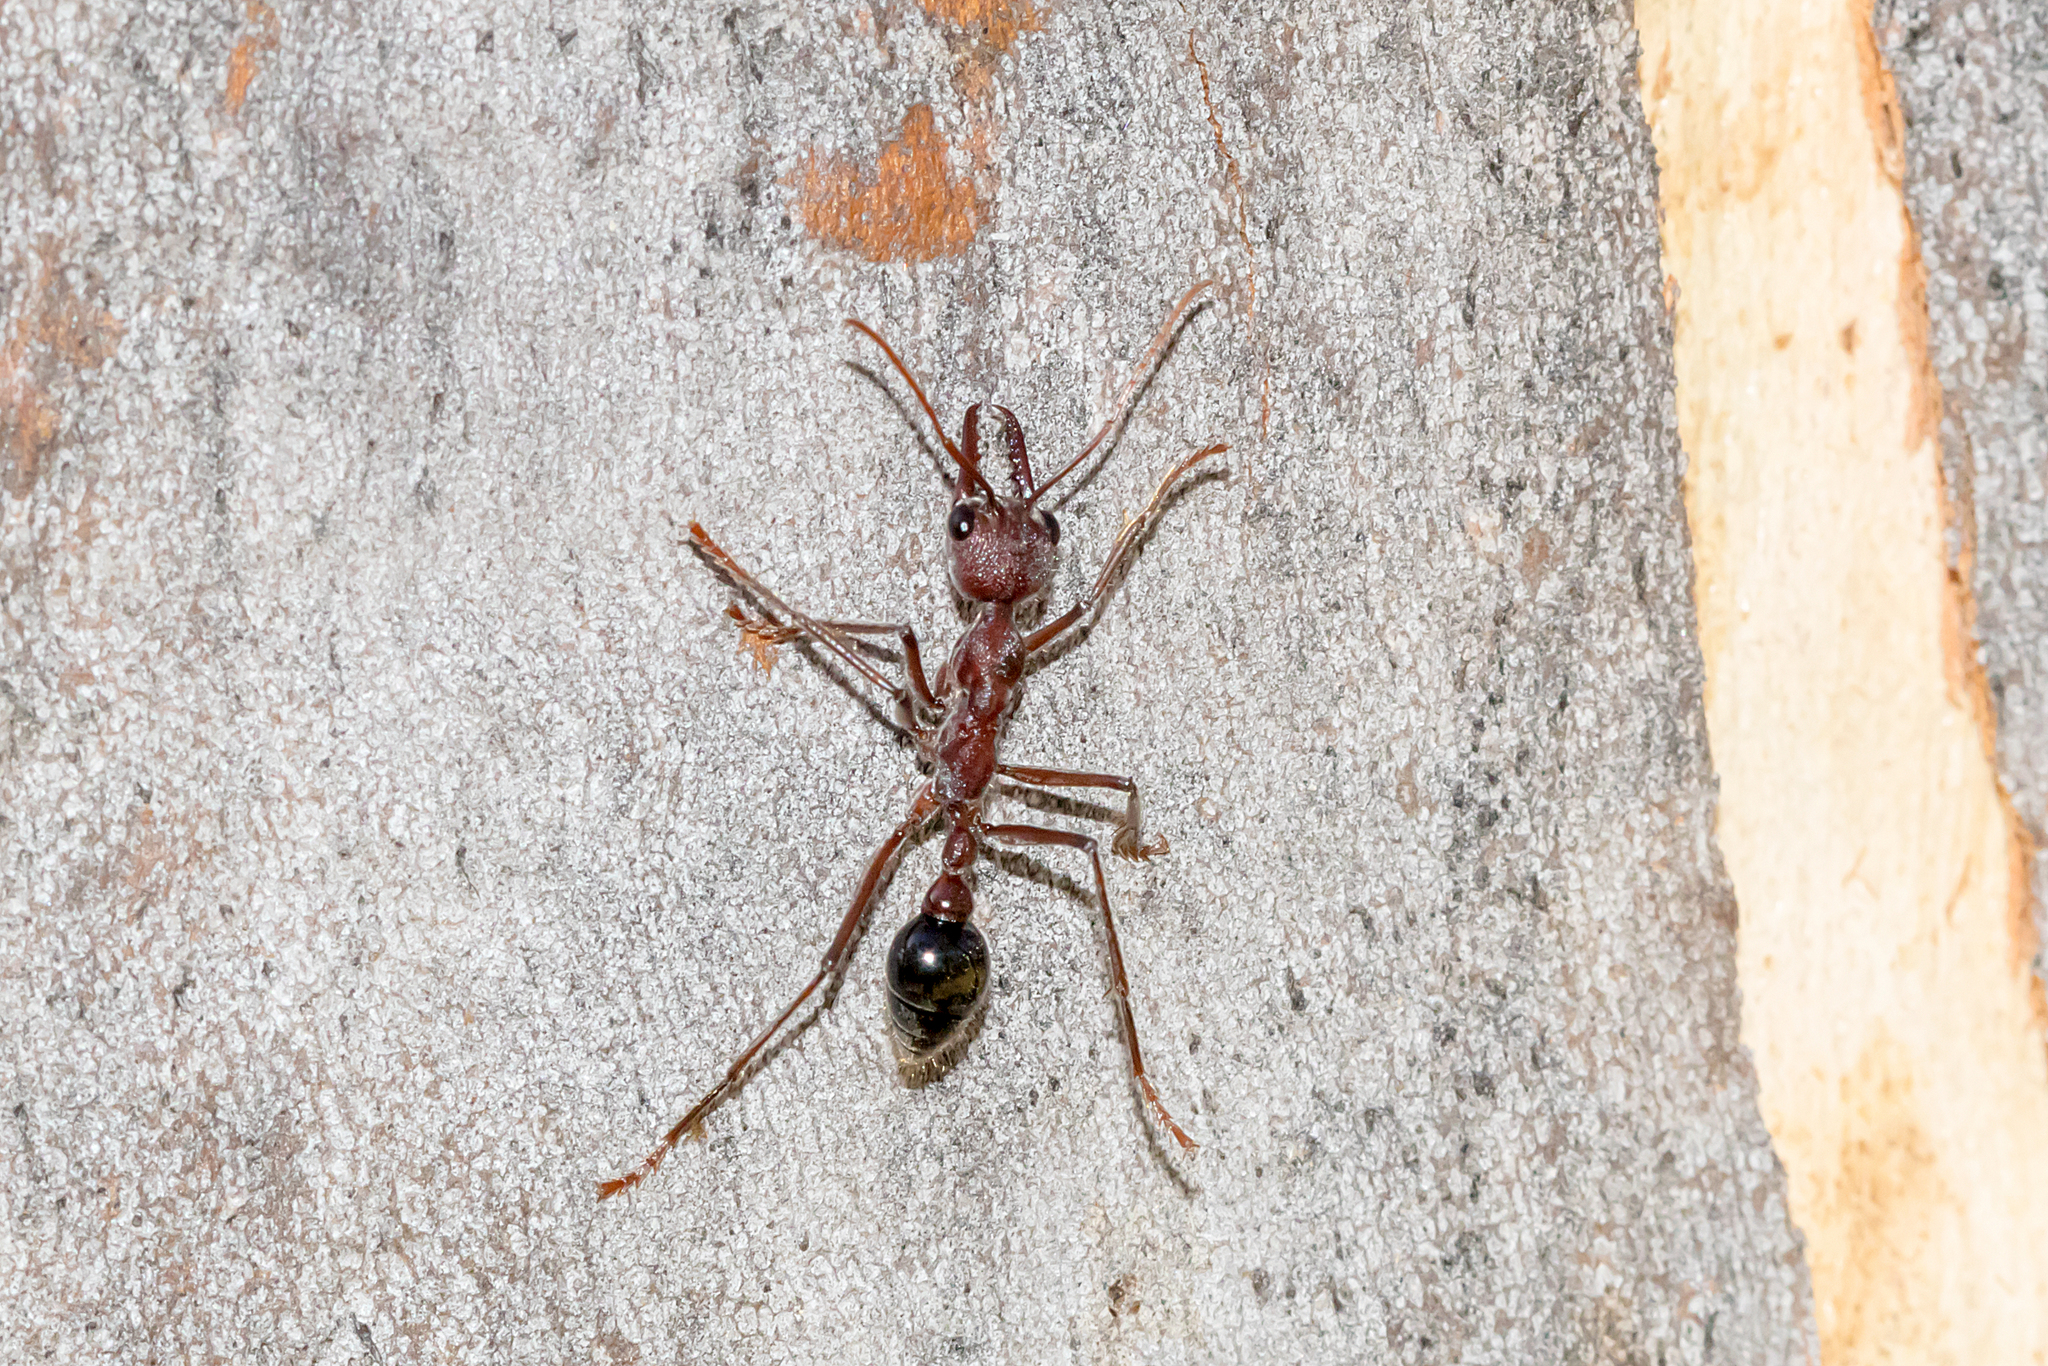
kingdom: Animalia
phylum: Arthropoda
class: Insecta
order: Hymenoptera
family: Formicidae
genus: Myrmecia
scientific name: Myrmecia simillima
